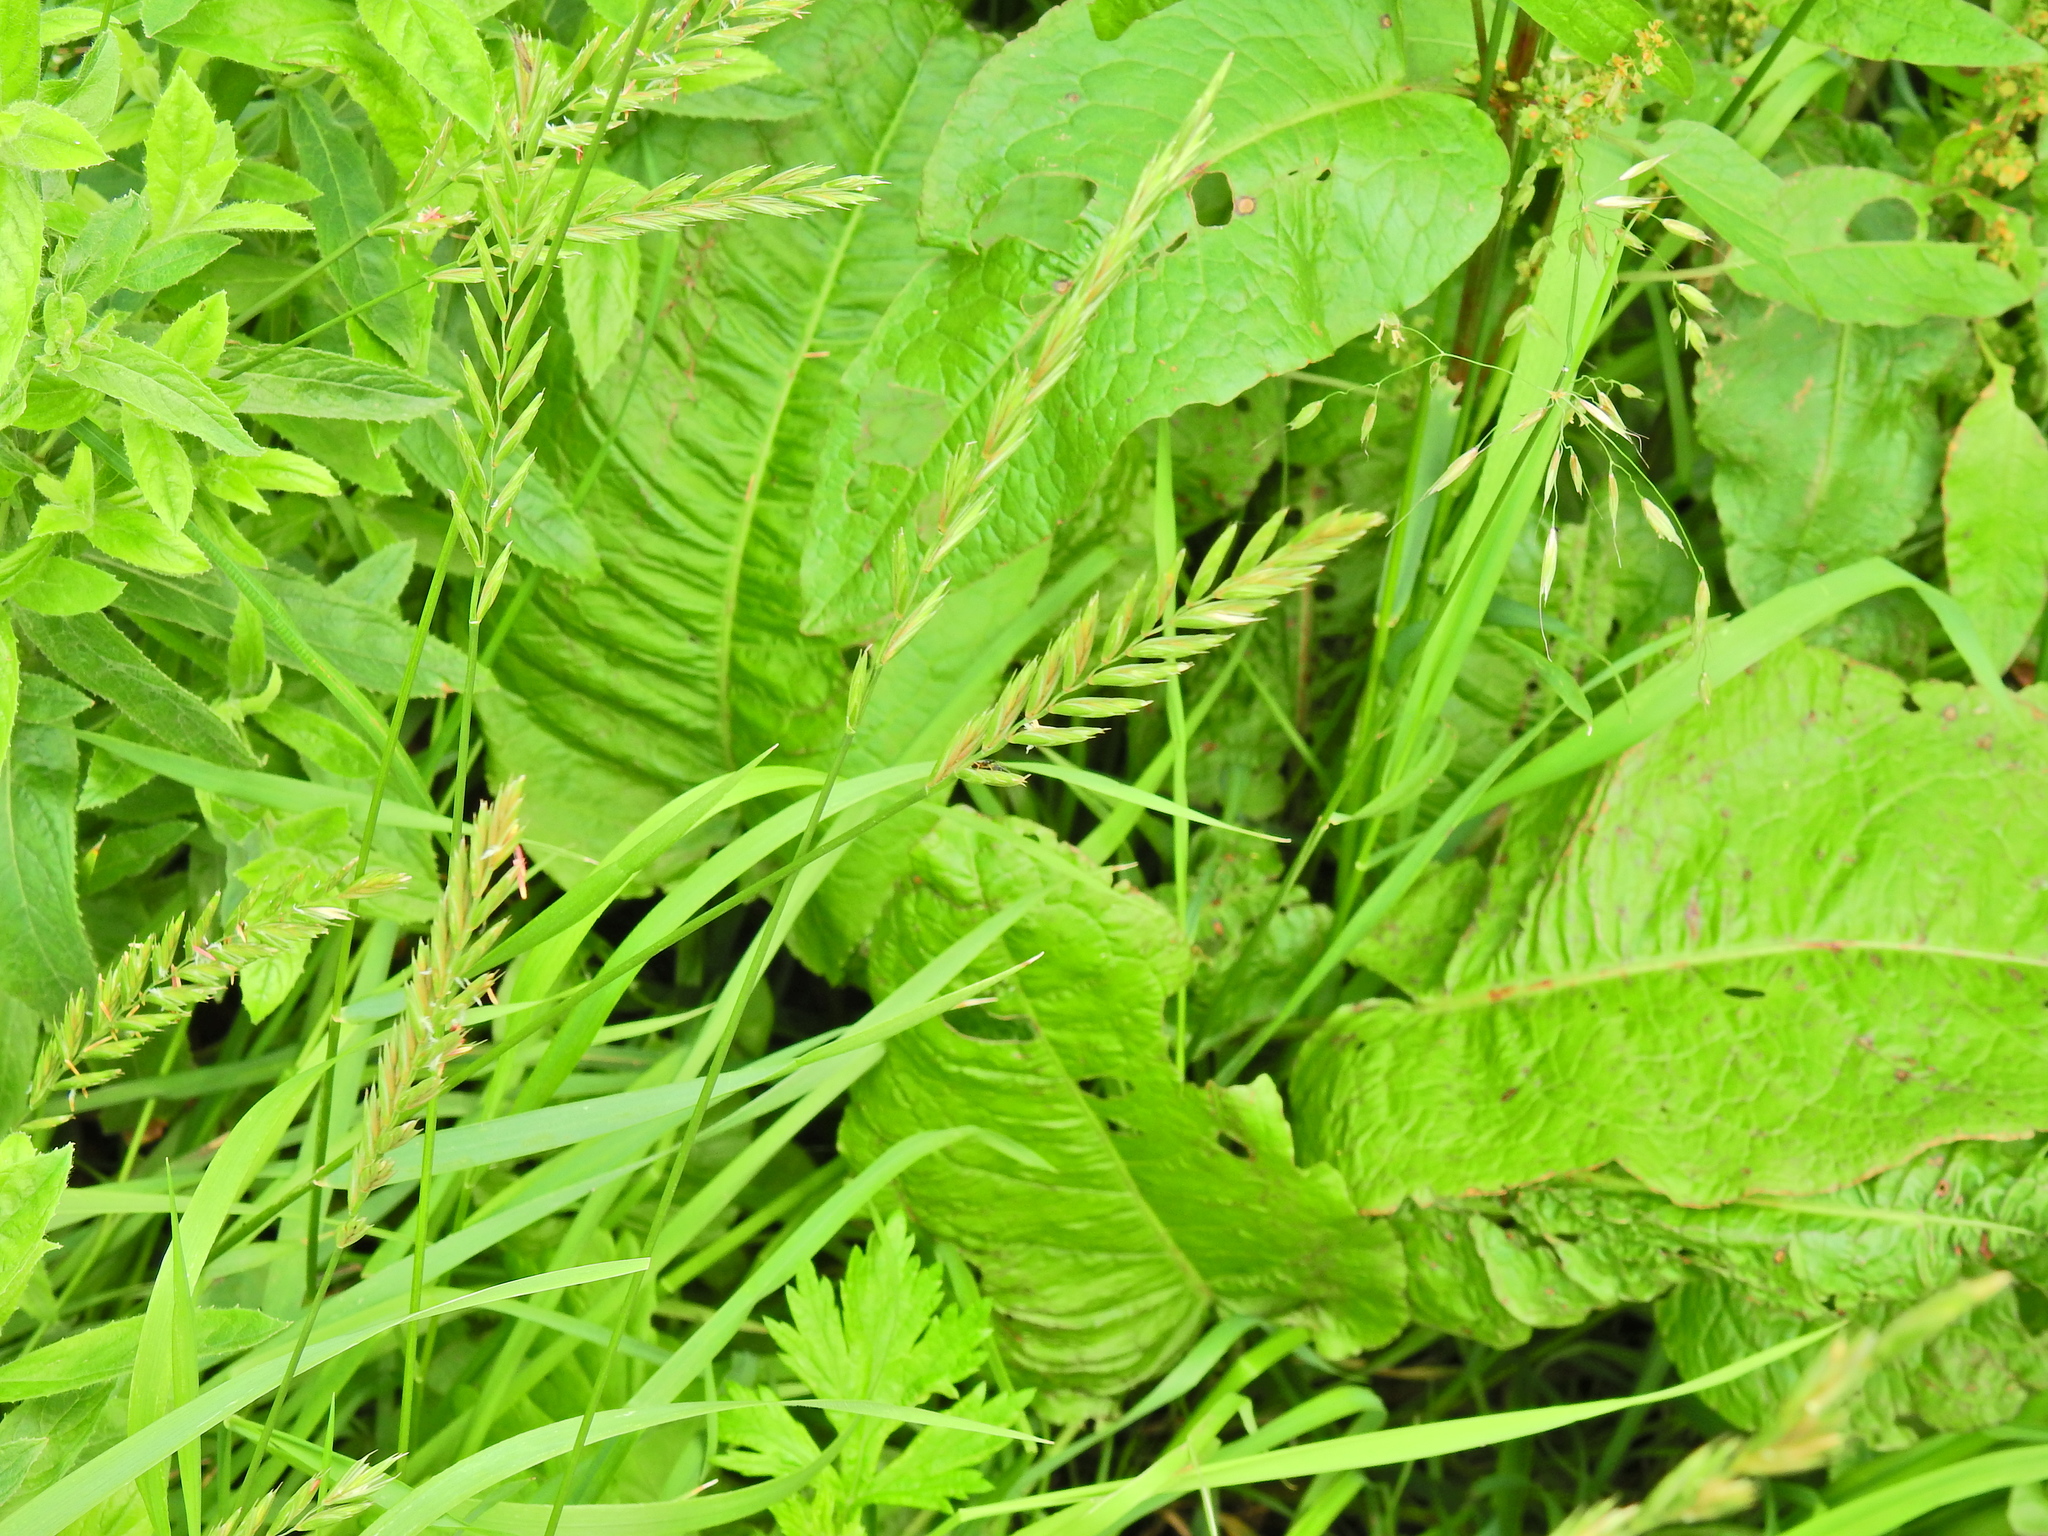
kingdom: Plantae
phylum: Tracheophyta
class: Liliopsida
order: Poales
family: Poaceae
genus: Elymus
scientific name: Elymus repens
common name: Quackgrass
